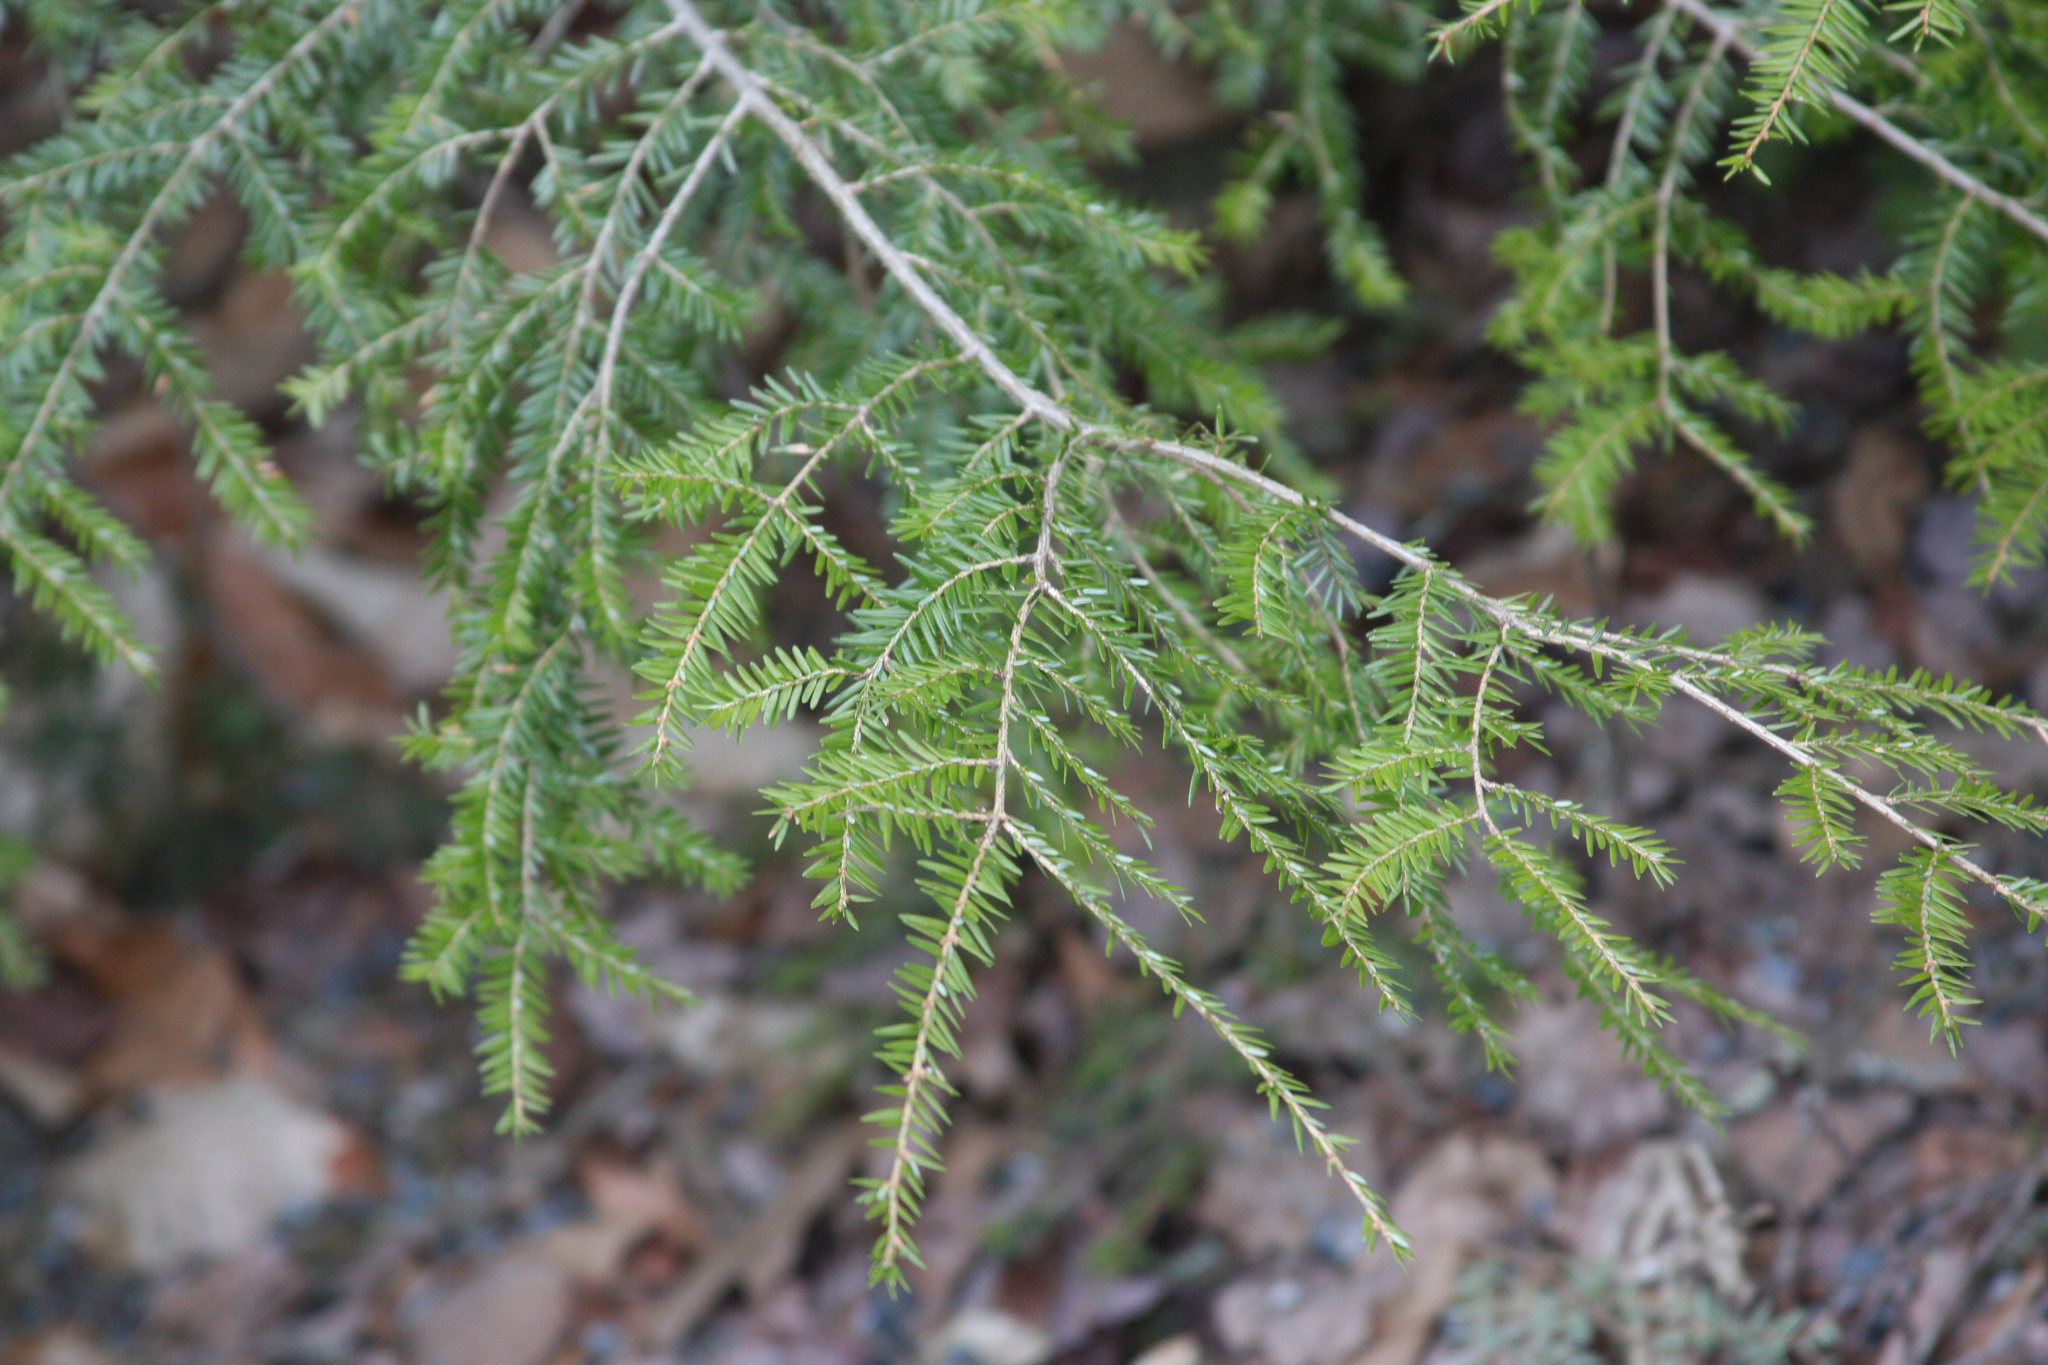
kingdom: Plantae
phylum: Tracheophyta
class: Pinopsida
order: Pinales
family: Pinaceae
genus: Tsuga
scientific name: Tsuga canadensis
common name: Eastern hemlock
